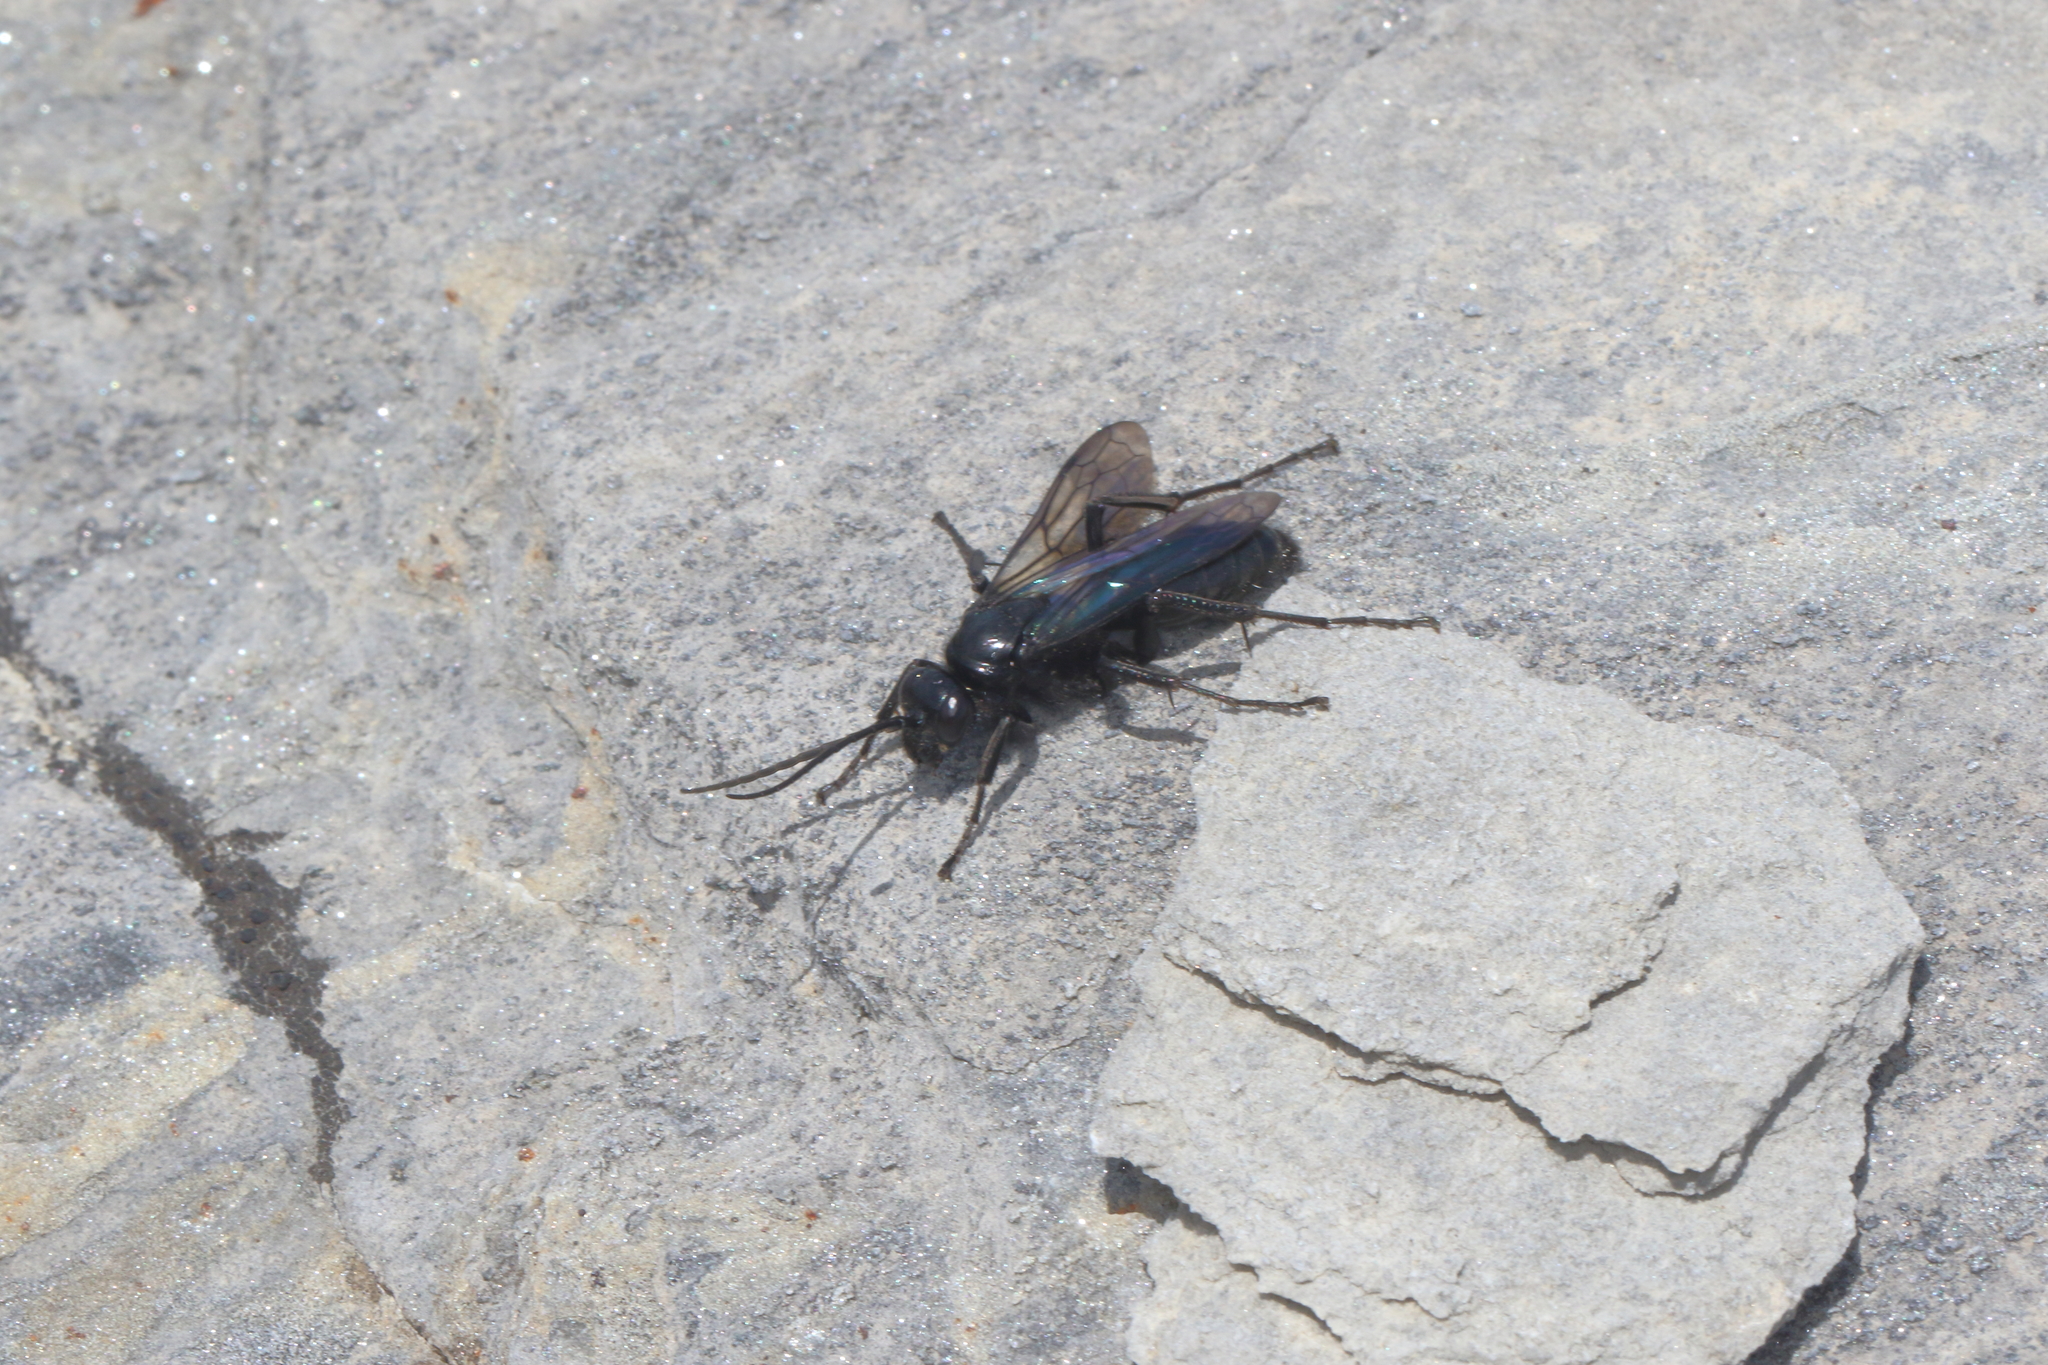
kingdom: Animalia
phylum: Arthropoda
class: Insecta
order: Hymenoptera
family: Pompilidae
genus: Priocnemis
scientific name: Priocnemis monachus
